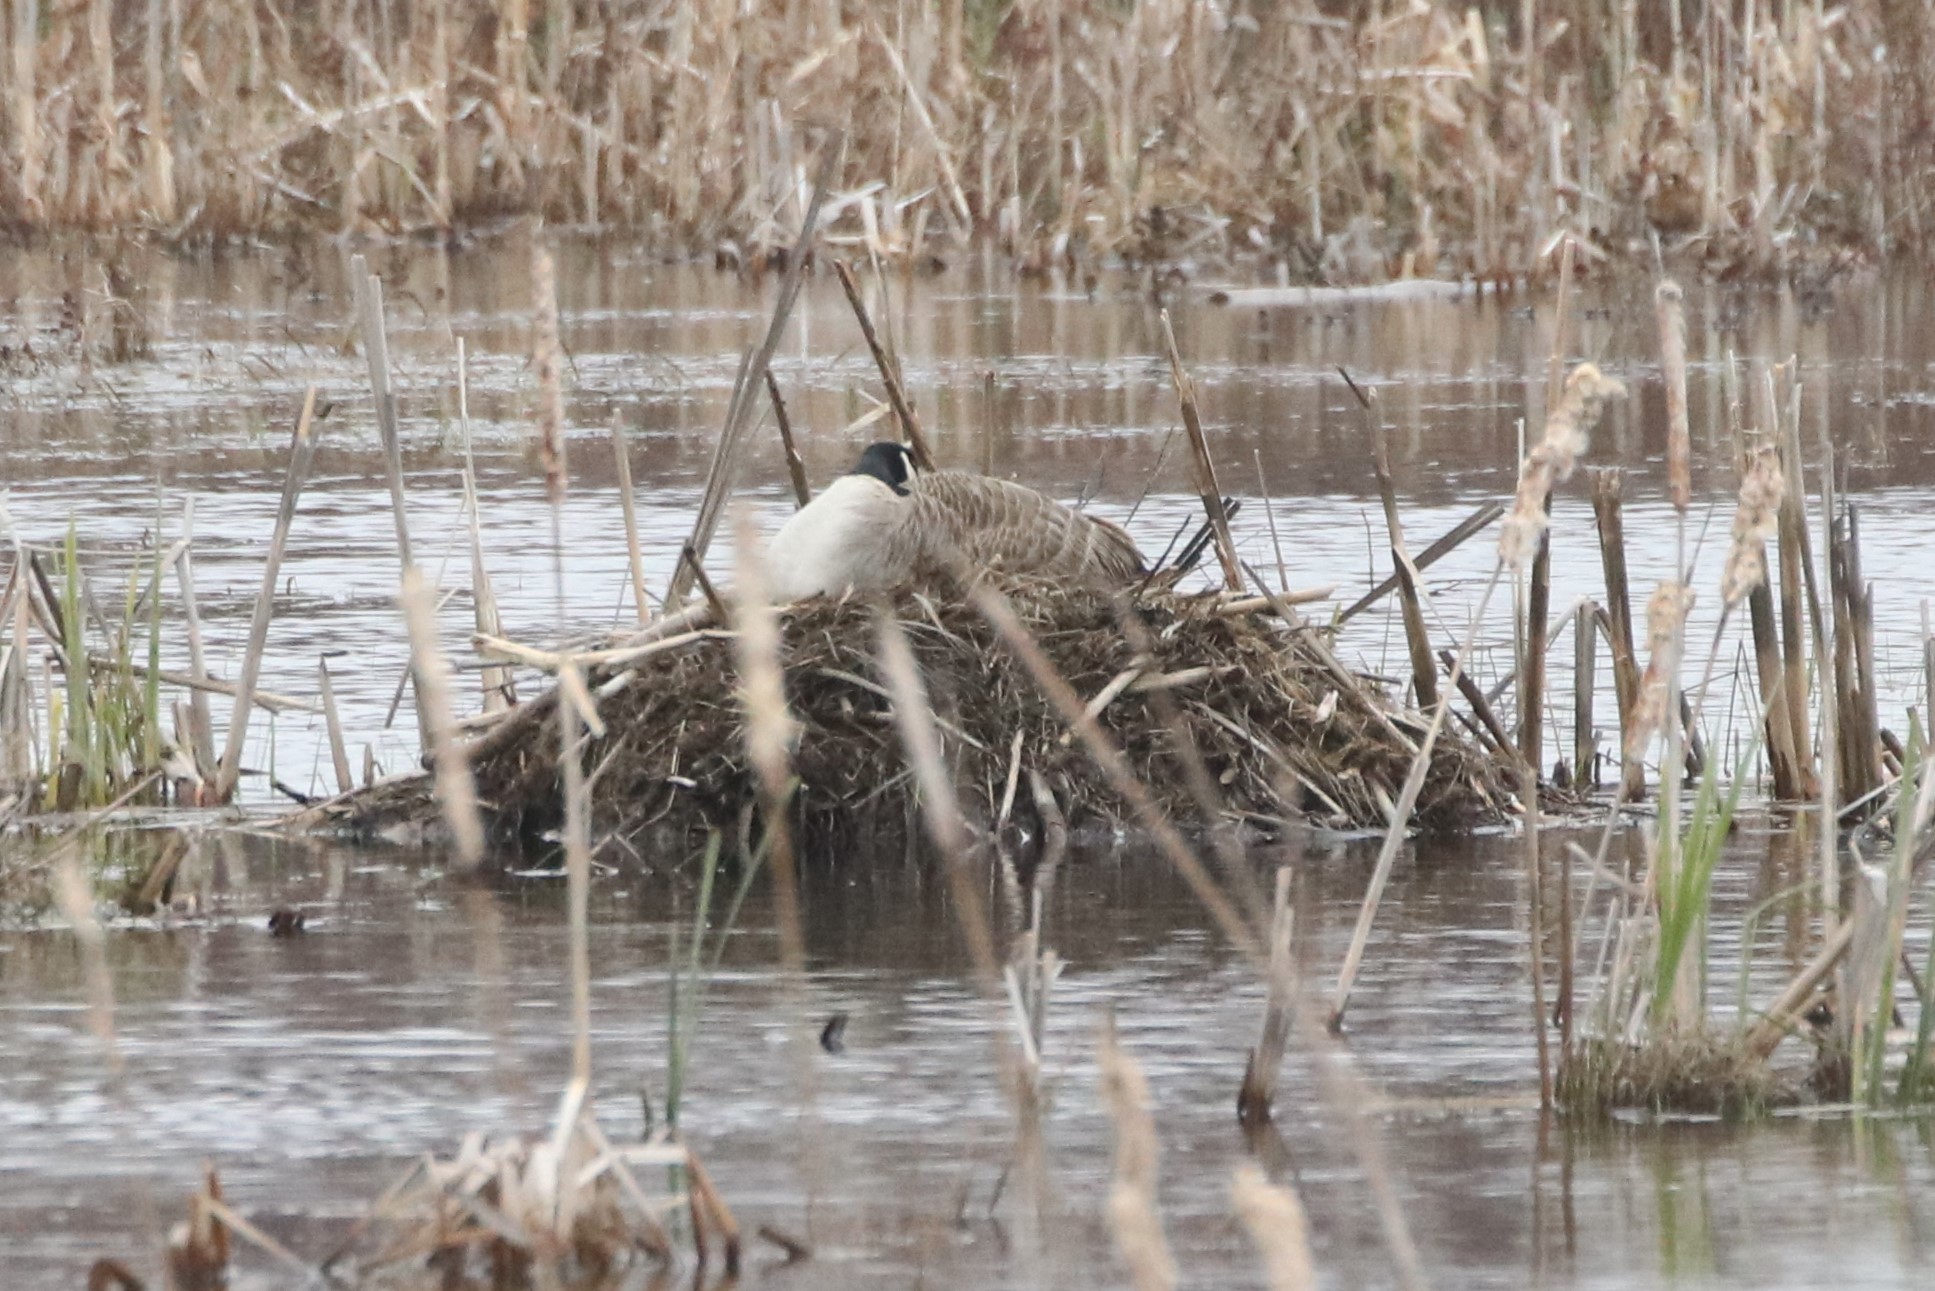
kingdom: Animalia
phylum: Chordata
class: Aves
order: Anseriformes
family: Anatidae
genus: Branta
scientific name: Branta canadensis
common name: Canada goose
